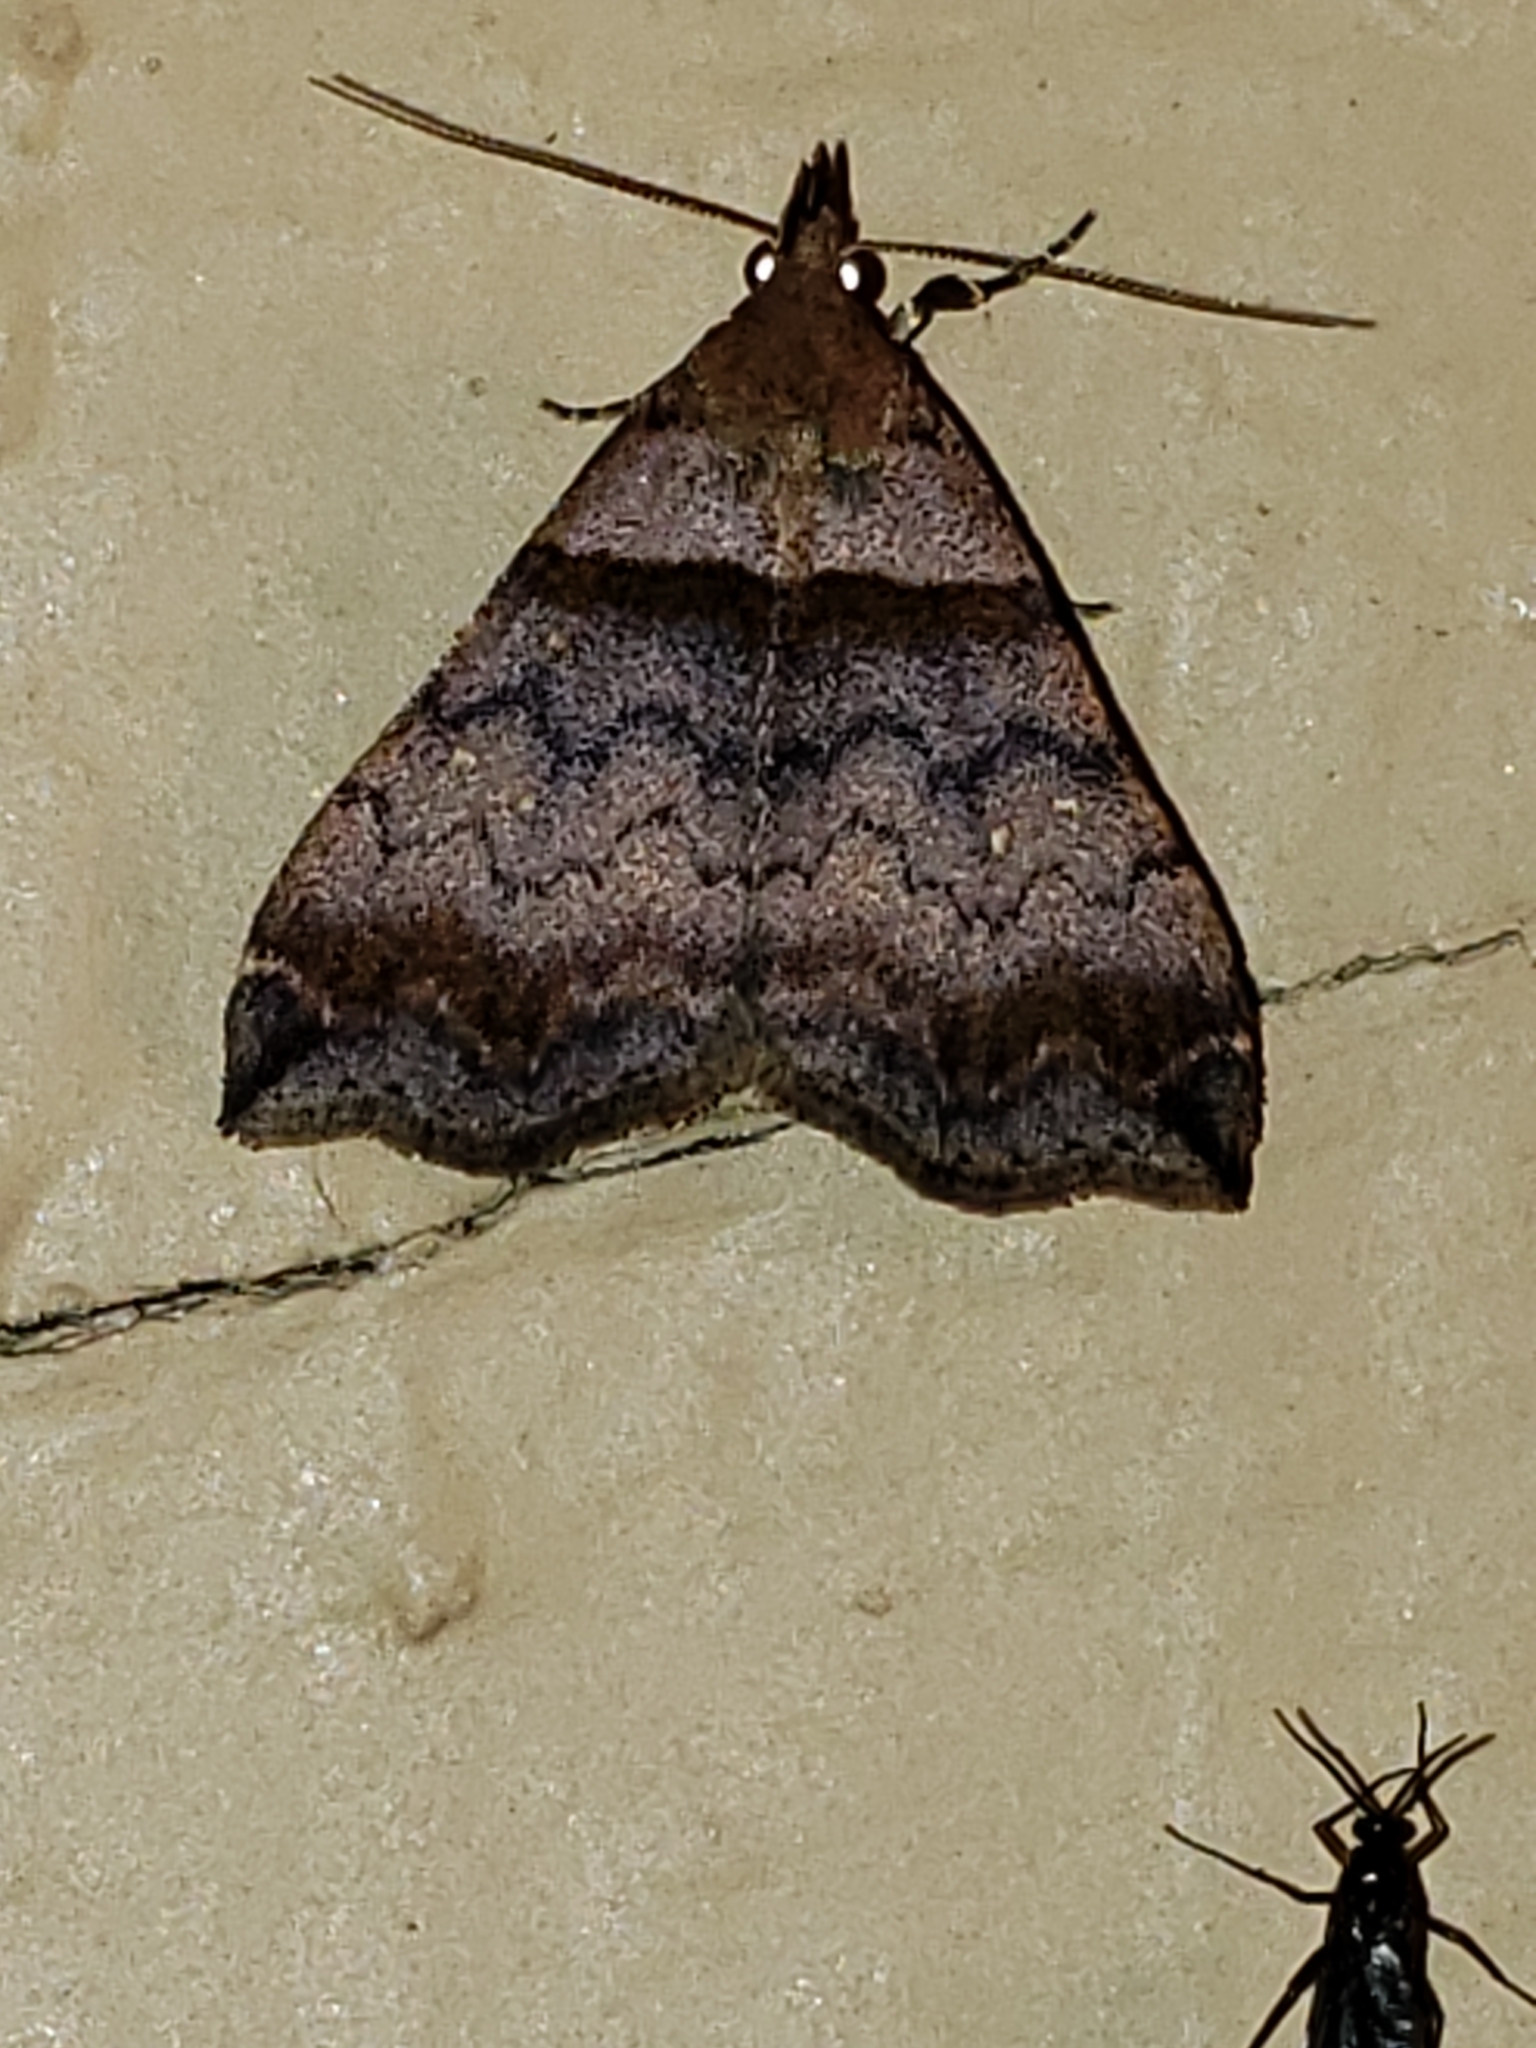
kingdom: Animalia
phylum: Arthropoda
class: Insecta
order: Lepidoptera
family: Erebidae
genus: Lascoria
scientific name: Lascoria ambigualis
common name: Ambiguous moth
